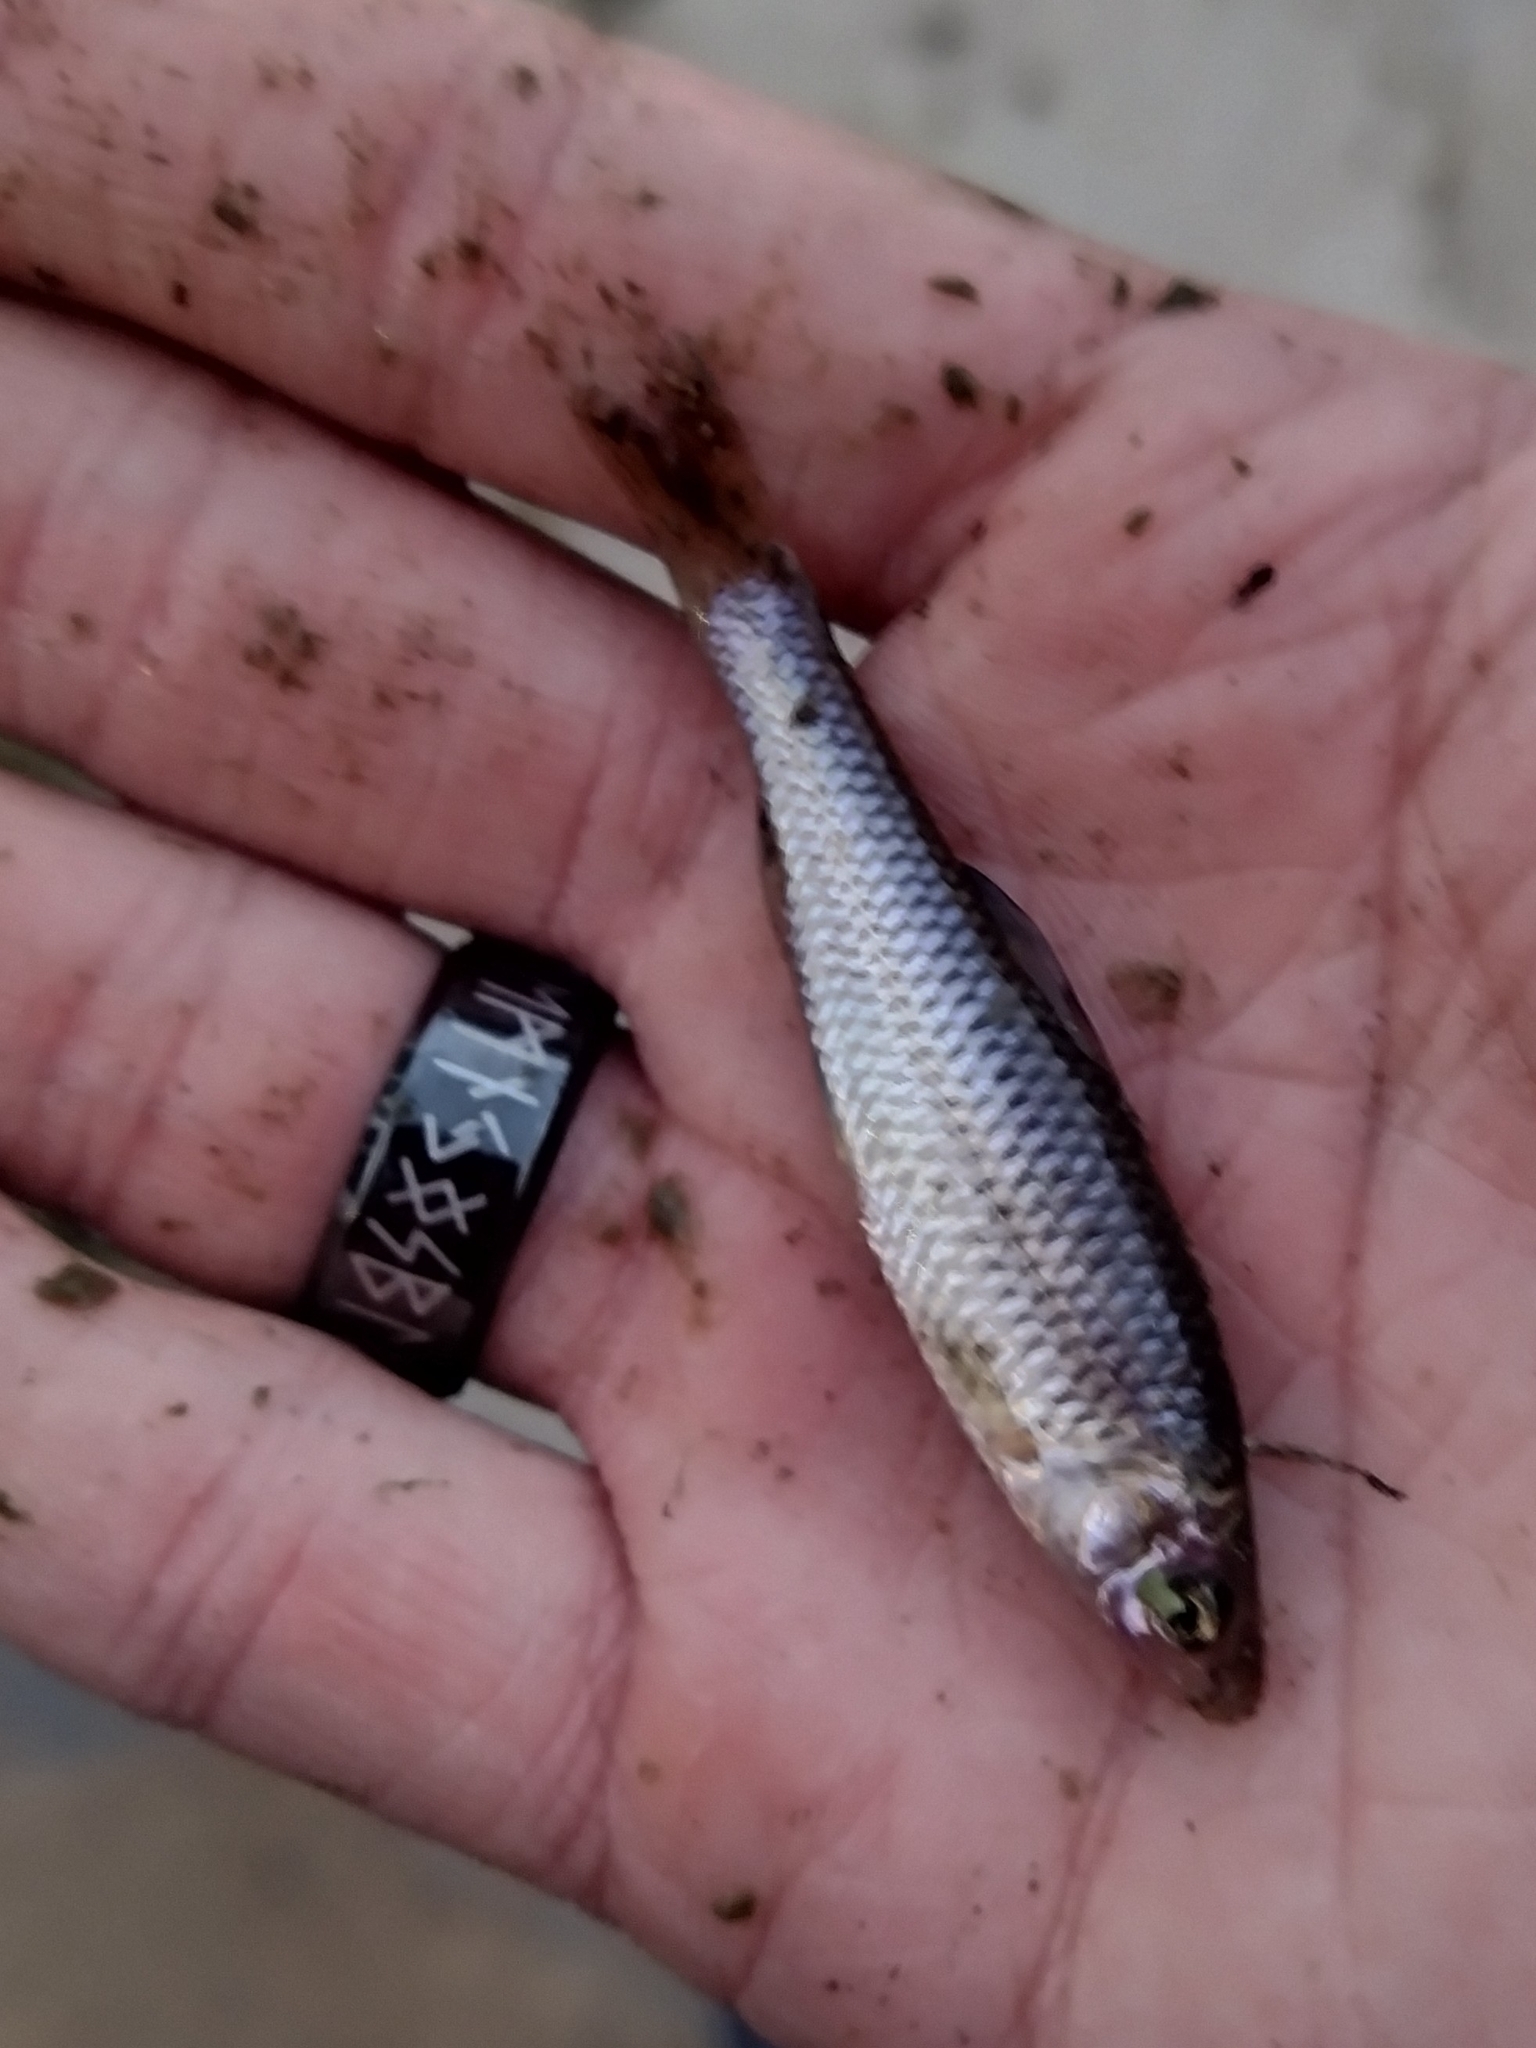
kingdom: Animalia
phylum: Chordata
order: Cypriniformes
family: Cyprinidae
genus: Pseudorasbora
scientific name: Pseudorasbora parva
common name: Topmouth gudgeon
